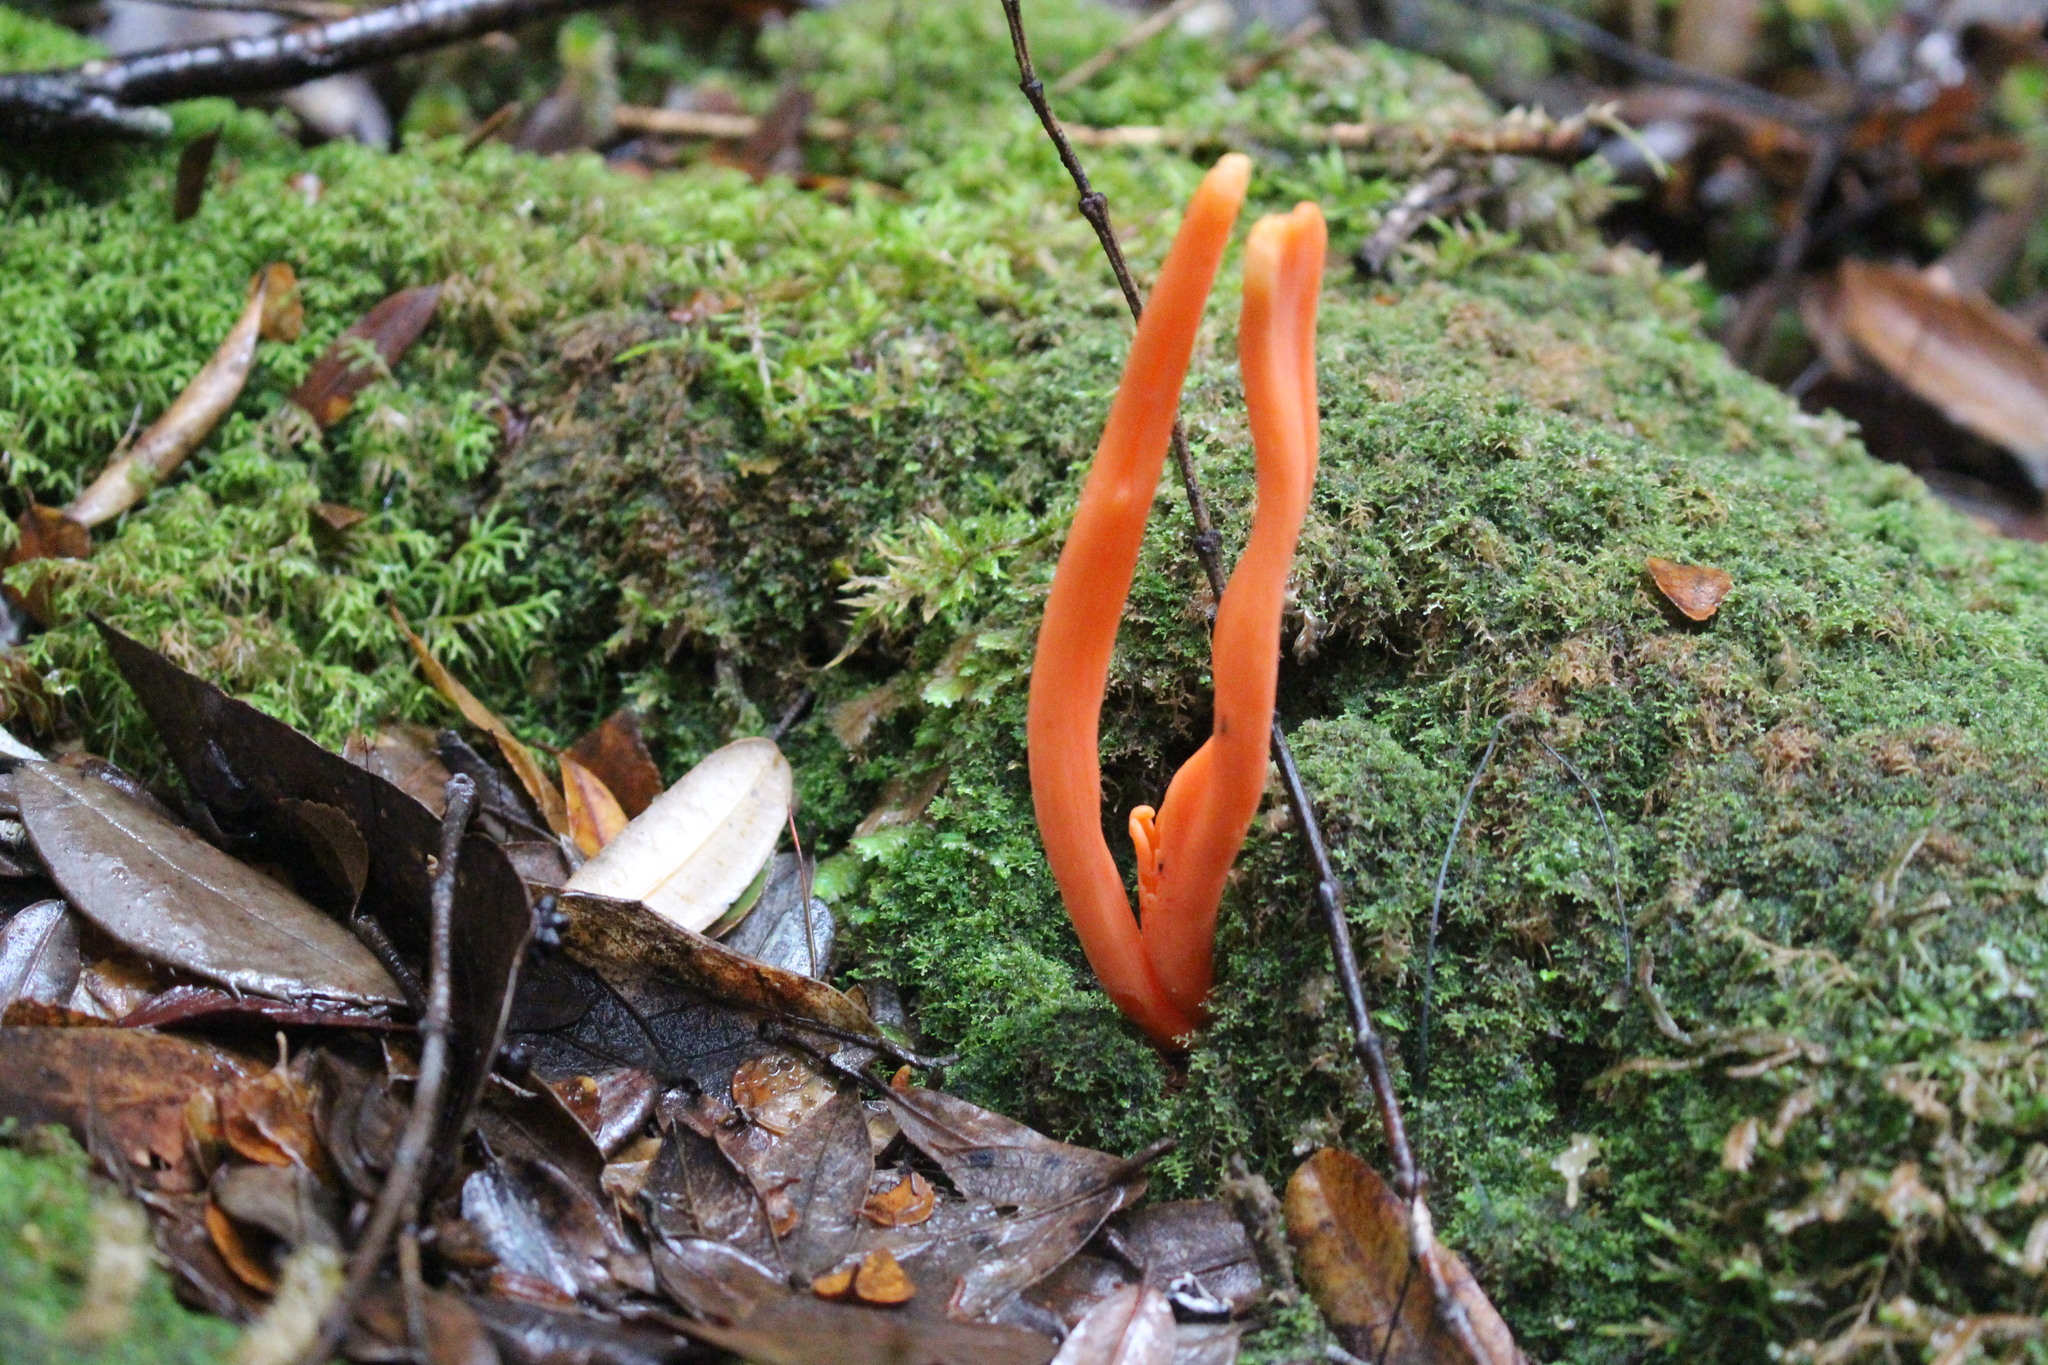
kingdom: Fungi
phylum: Basidiomycota
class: Agaricomycetes
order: Agaricales
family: Clavariaceae
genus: Clavulinopsis
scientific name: Clavulinopsis sulcata
